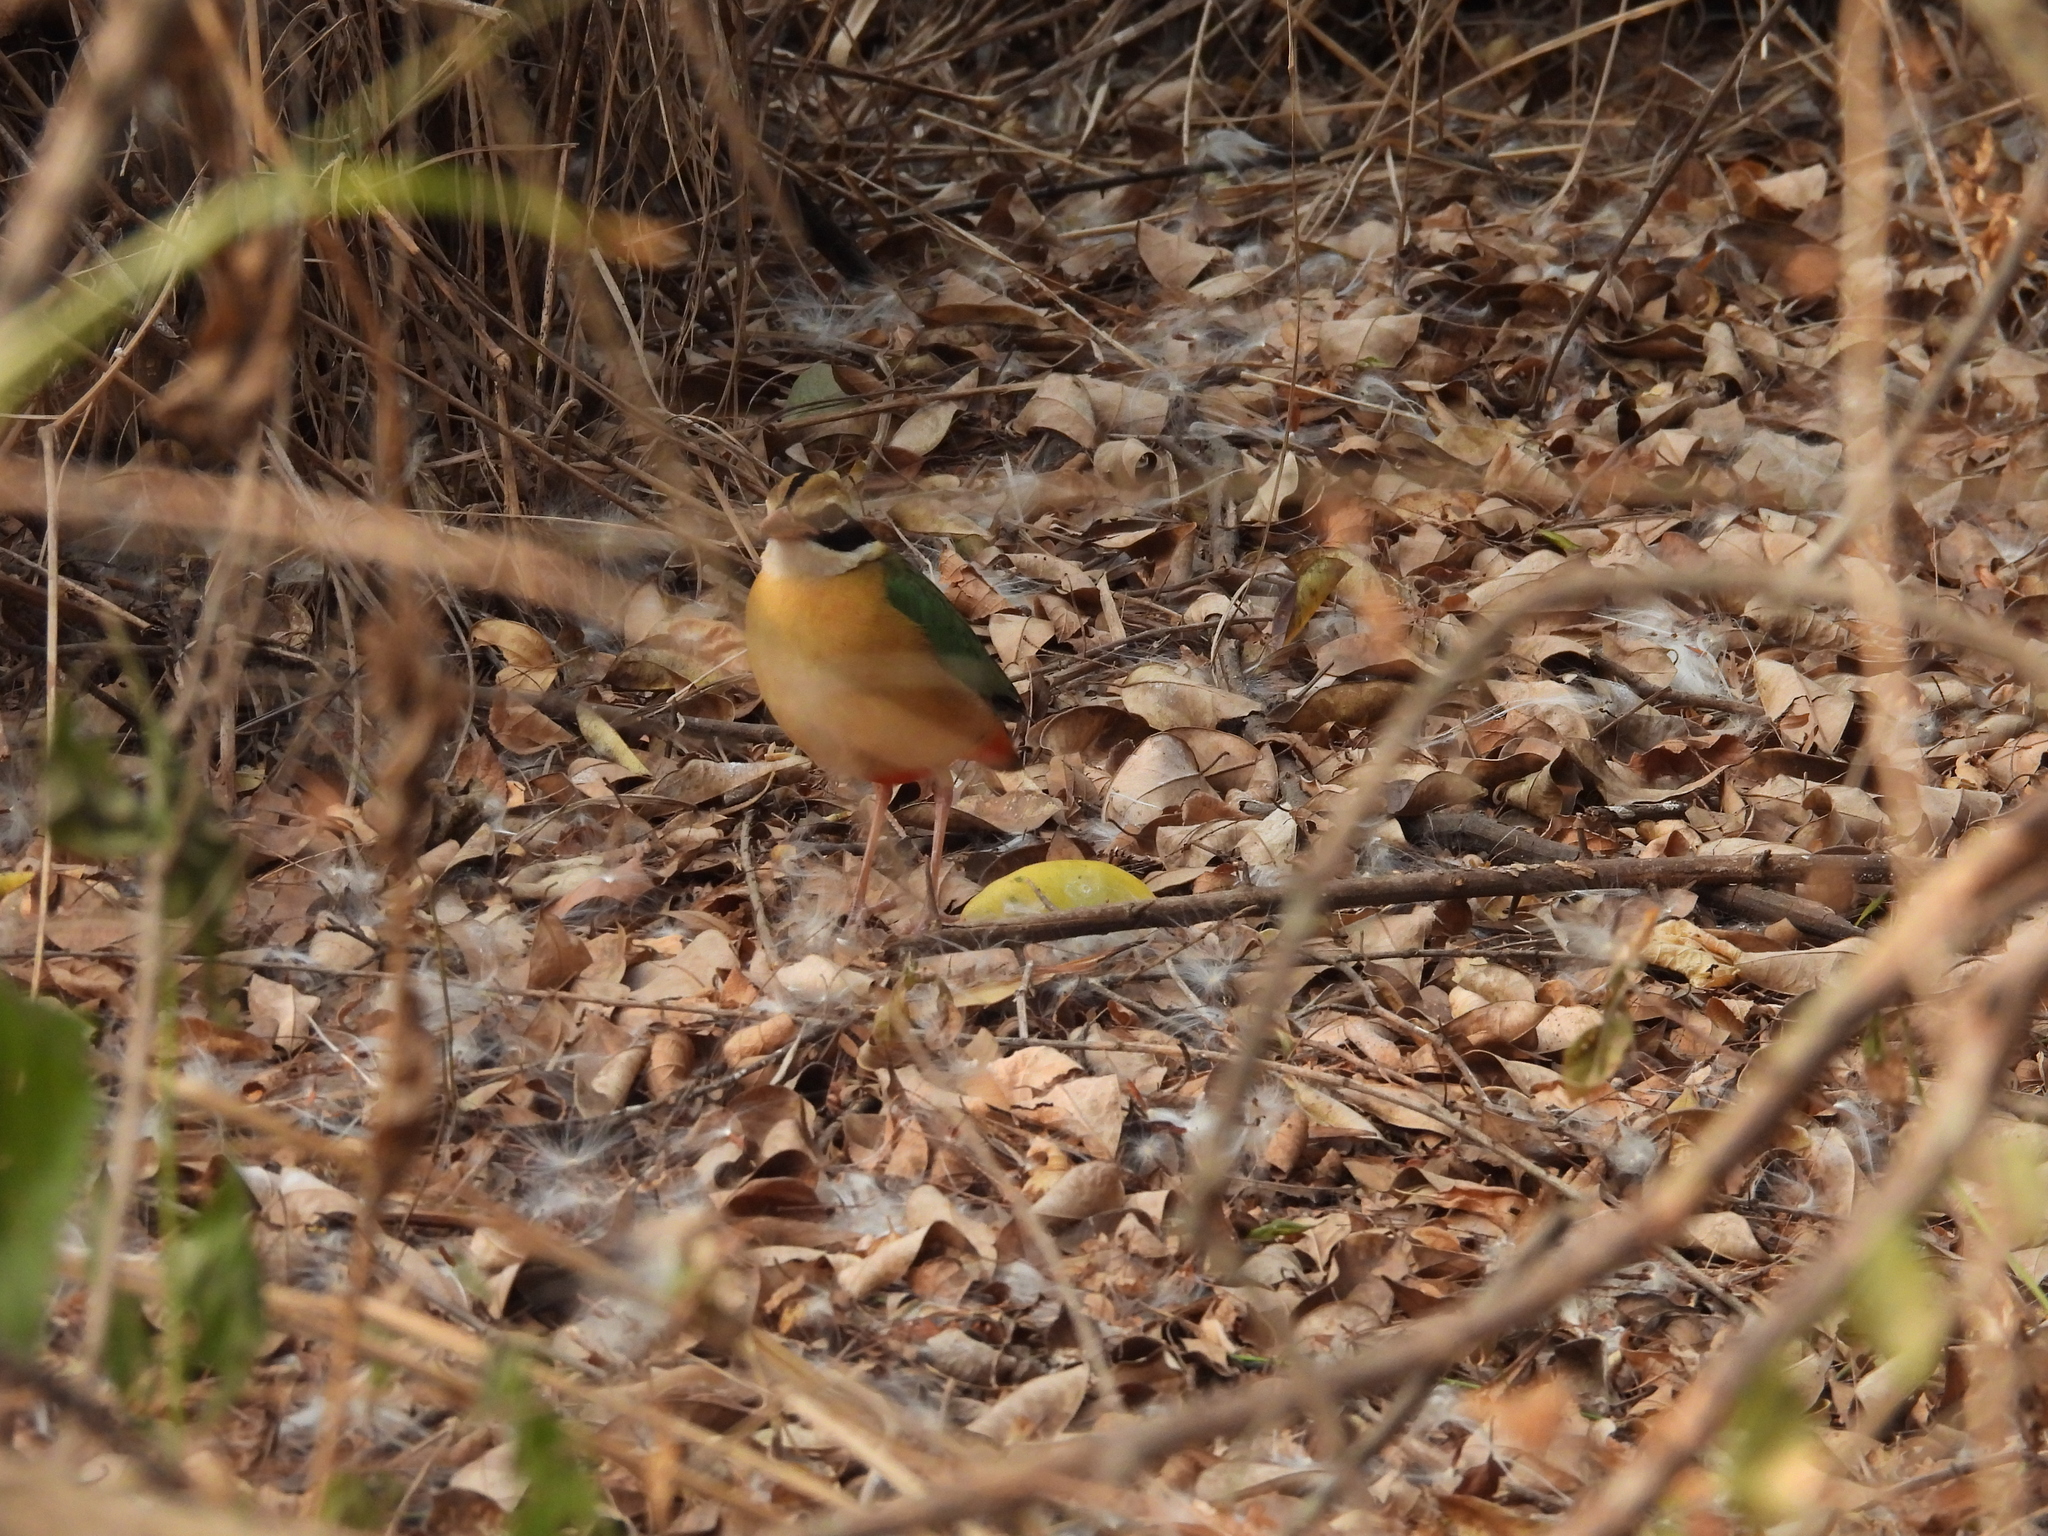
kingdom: Animalia
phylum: Chordata
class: Aves
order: Passeriformes
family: Pittidae
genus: Pitta
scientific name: Pitta brachyura
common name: Indian pitta
